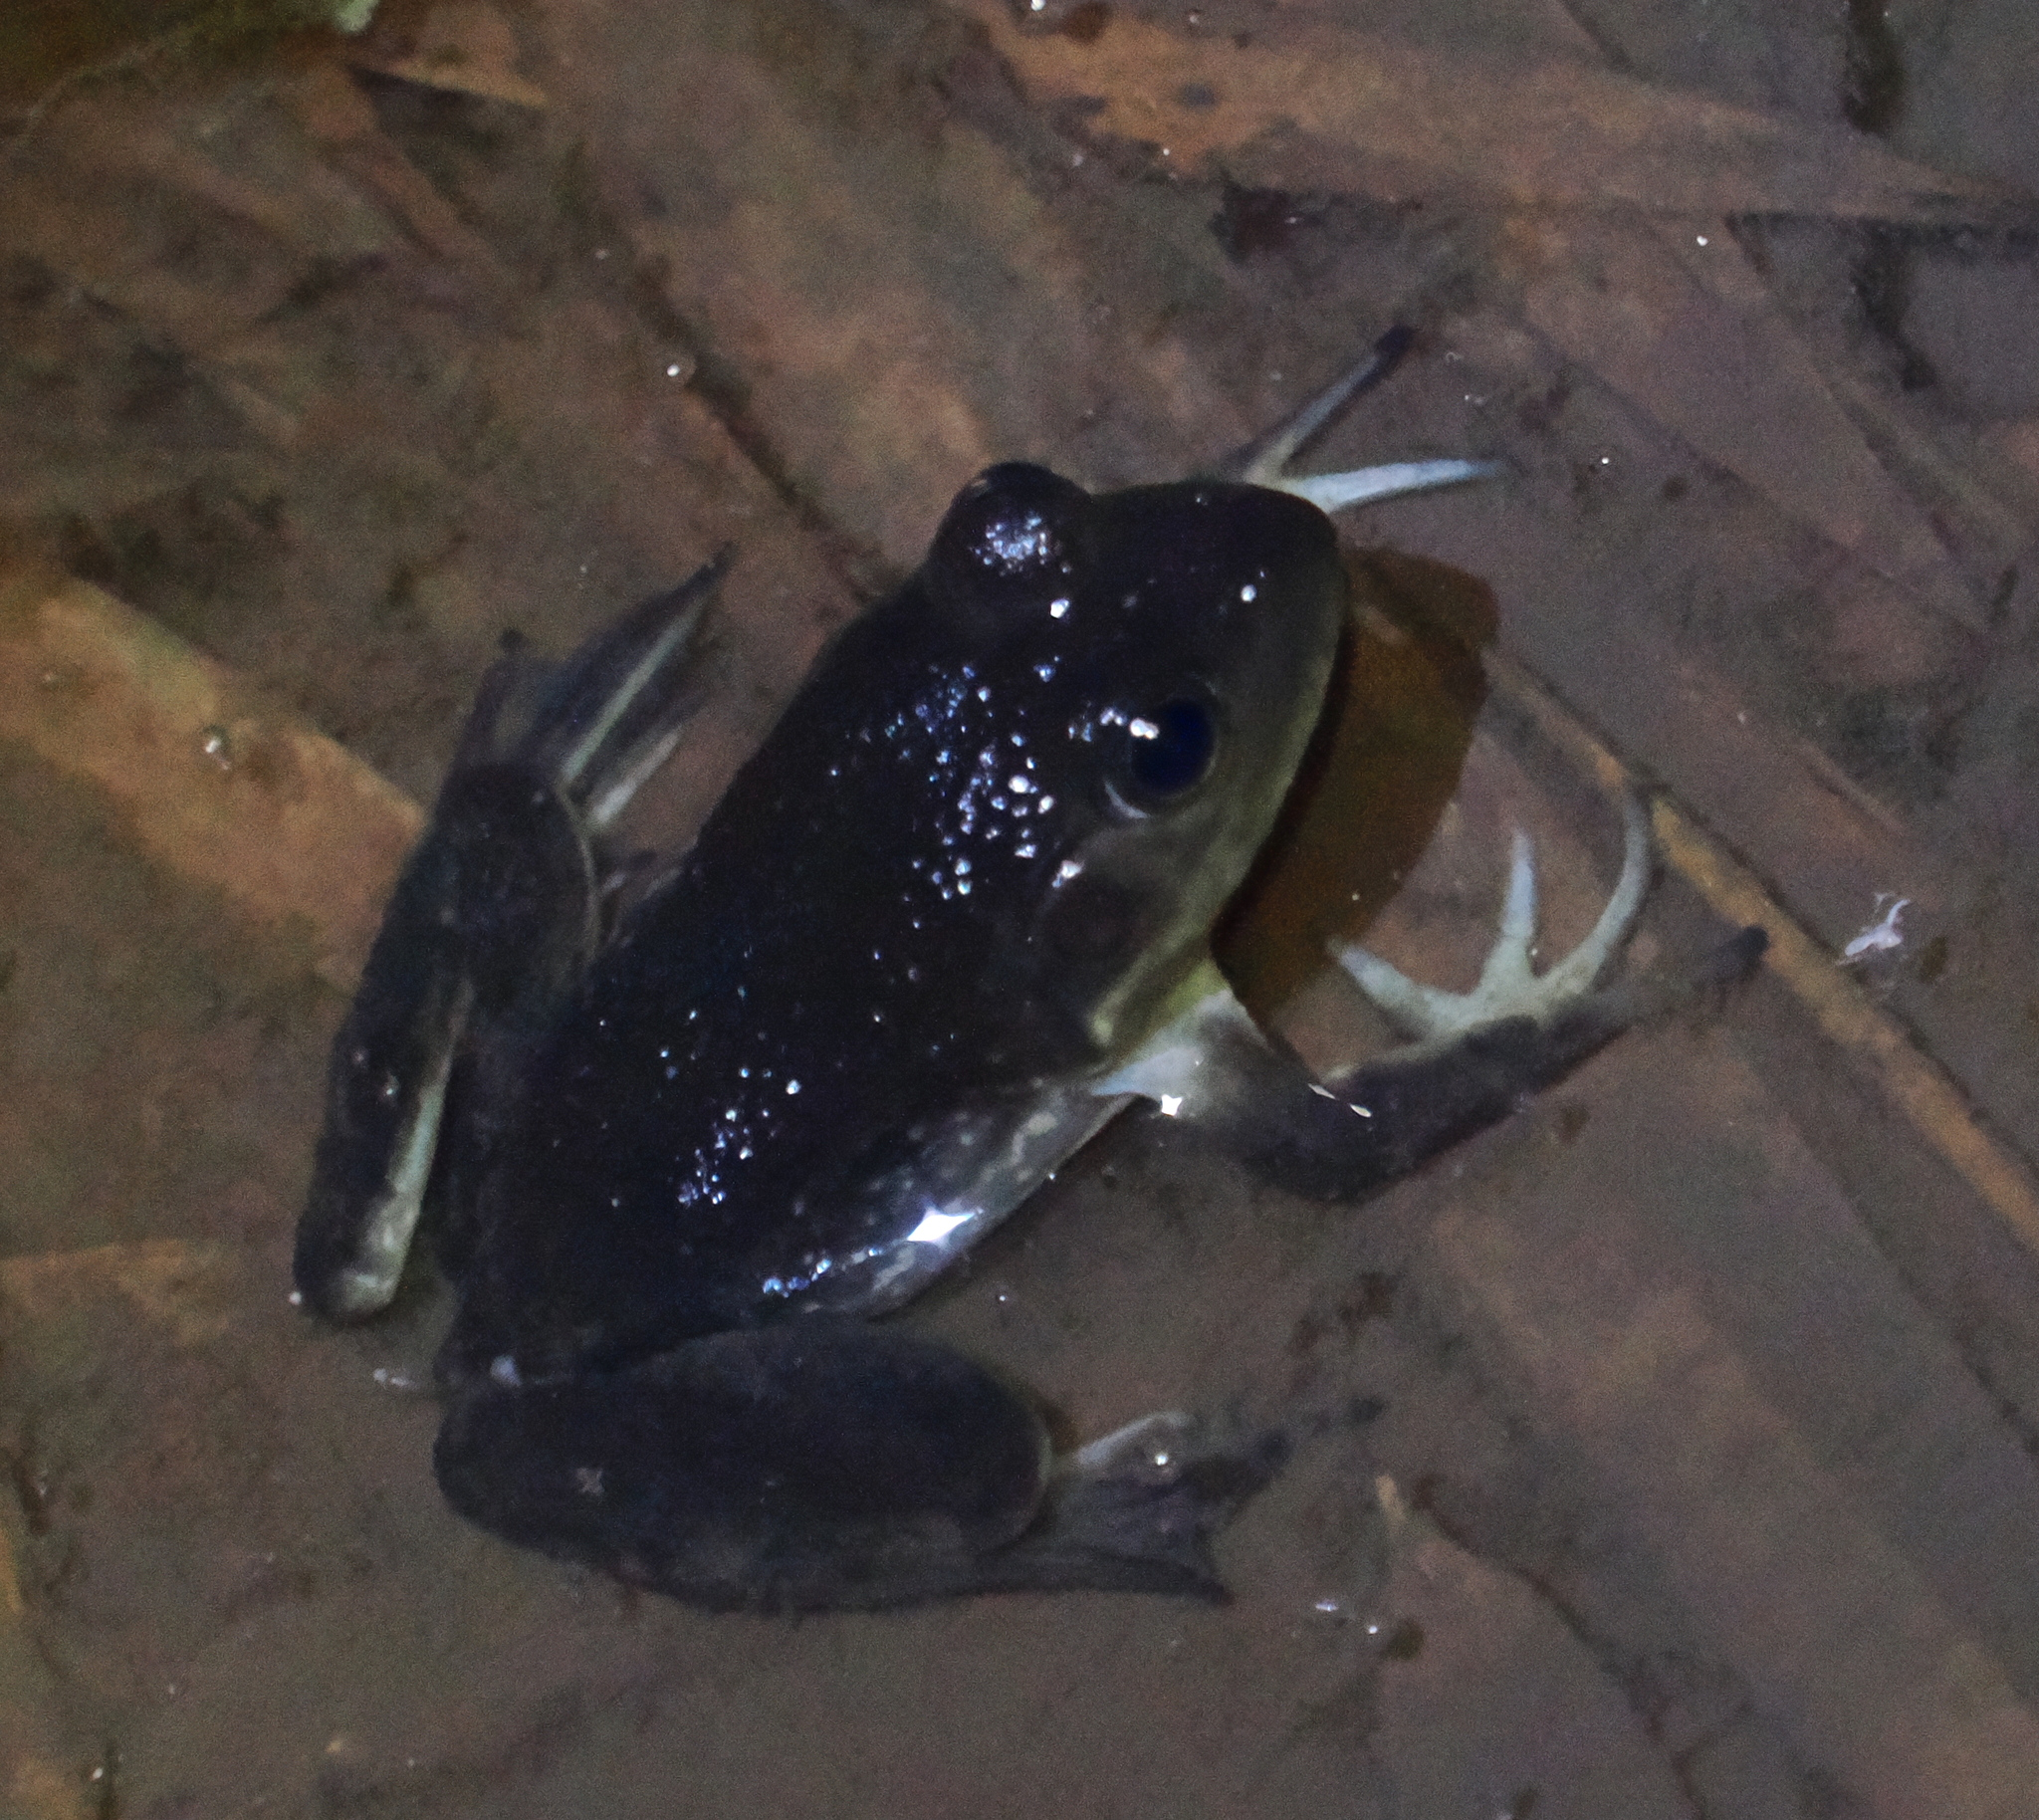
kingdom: Animalia
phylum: Chordata
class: Amphibia
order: Anura
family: Ranidae
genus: Lithobates
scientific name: Lithobates catesbeianus
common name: American bullfrog
